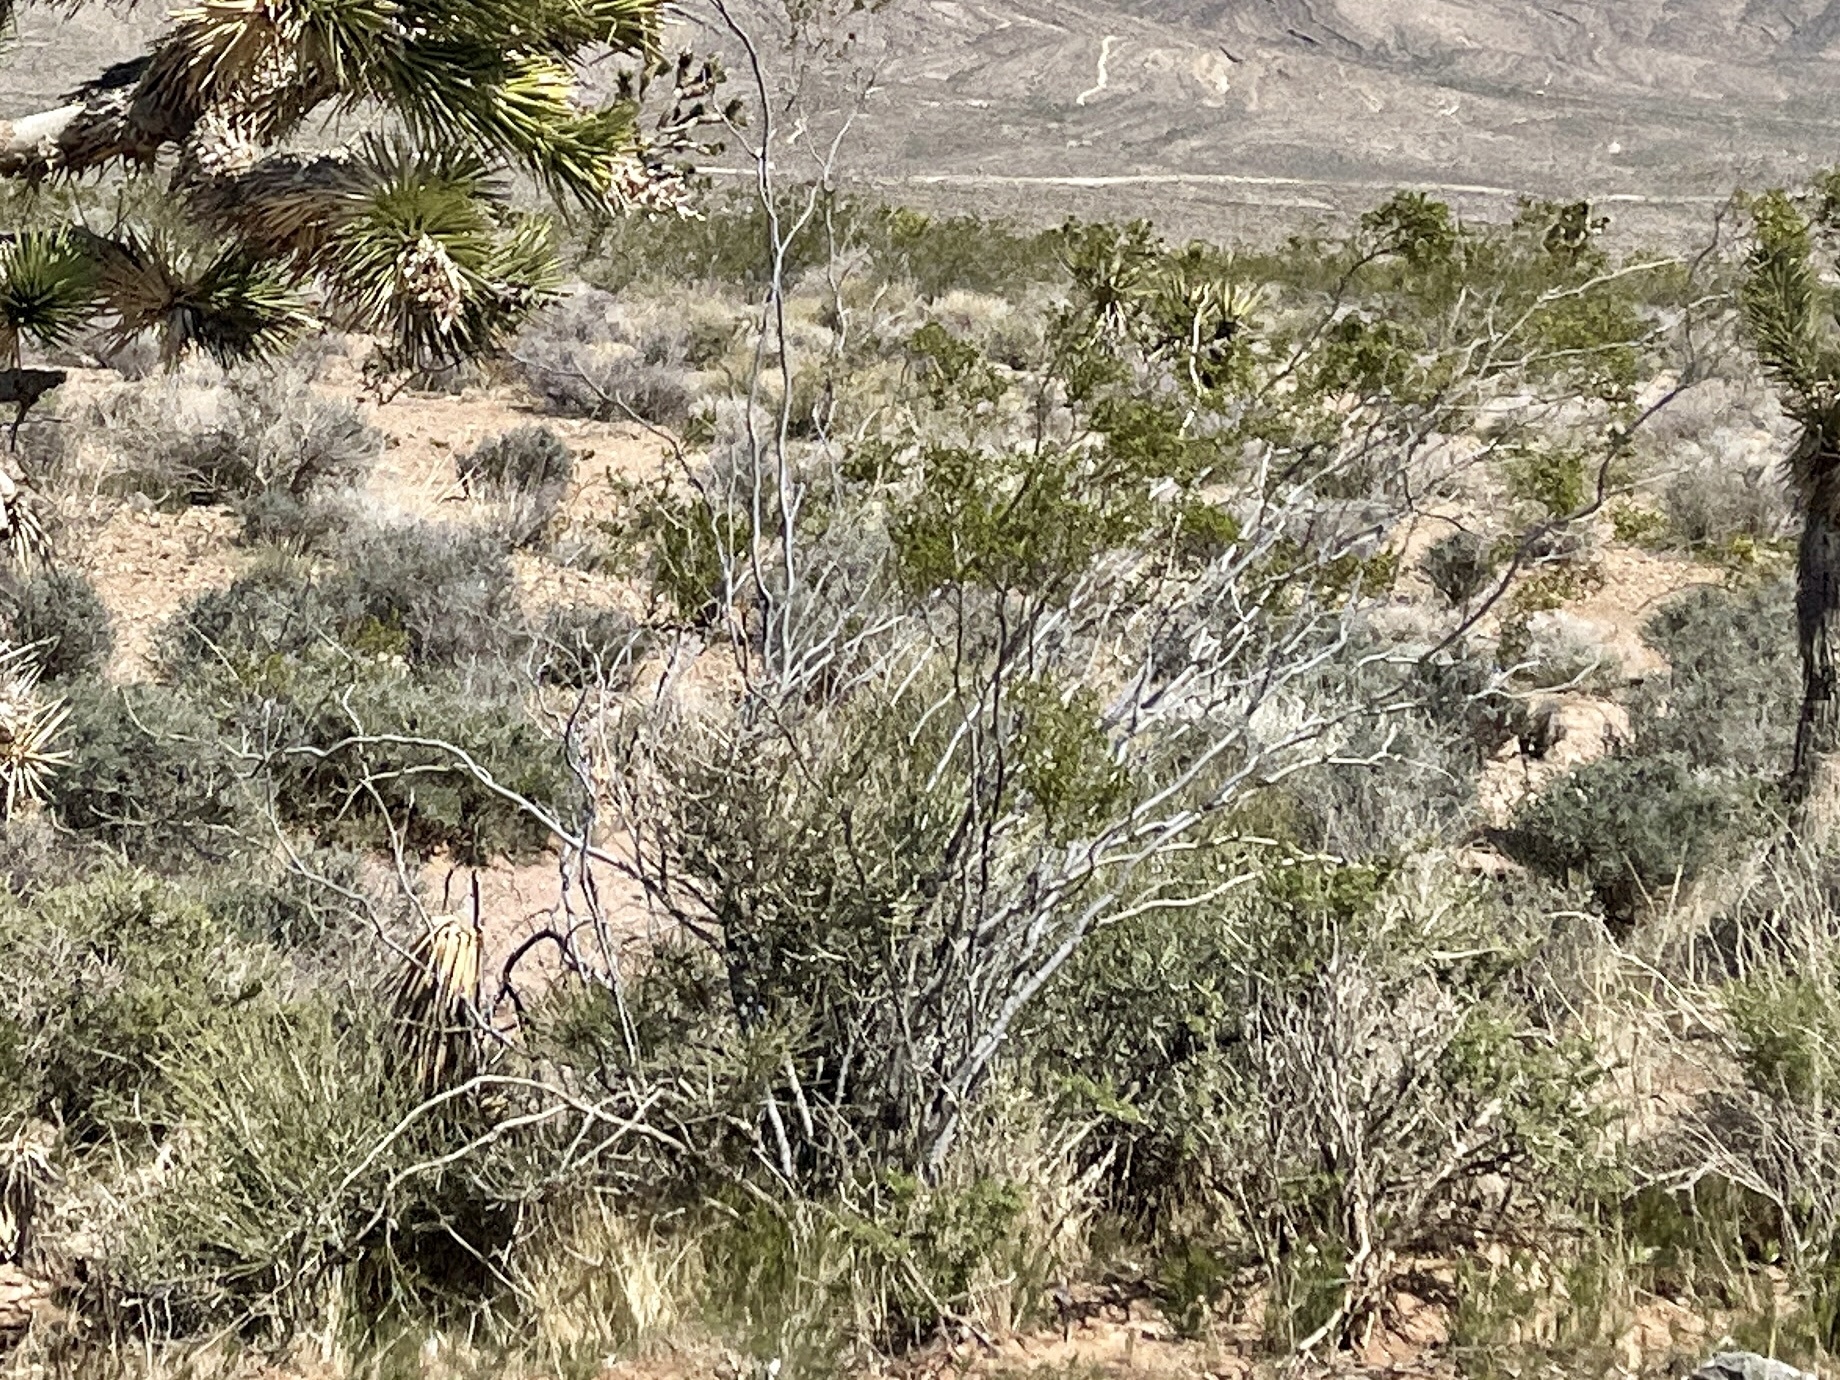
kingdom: Plantae
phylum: Tracheophyta
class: Magnoliopsida
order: Zygophyllales
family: Zygophyllaceae
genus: Larrea
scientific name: Larrea tridentata
